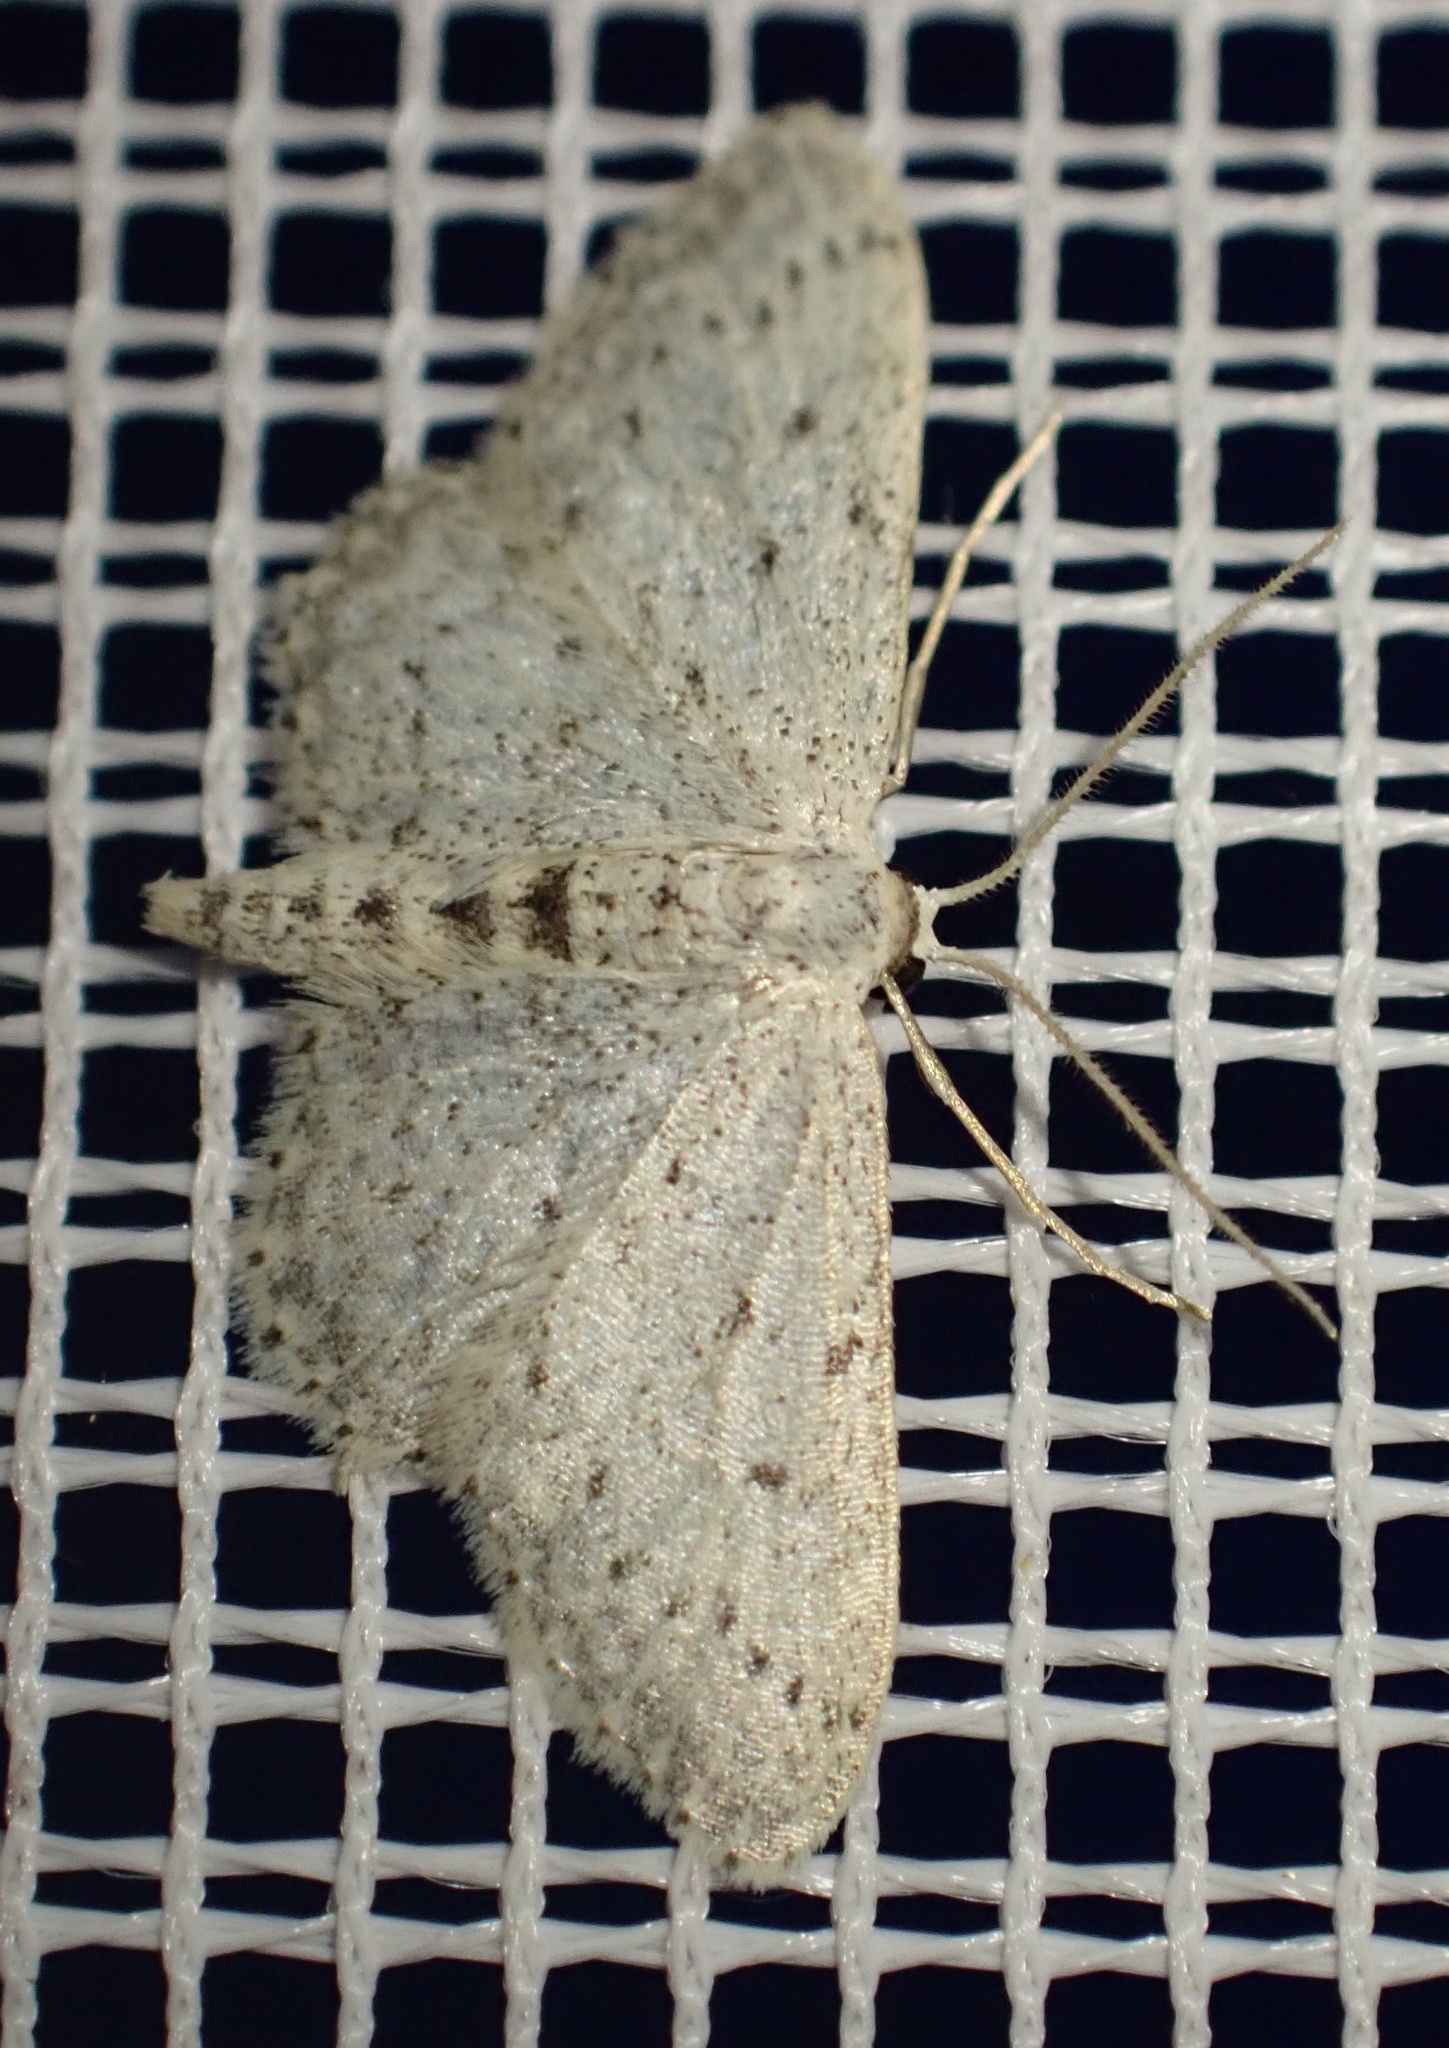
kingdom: Animalia
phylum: Arthropoda
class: Insecta
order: Lepidoptera
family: Geometridae
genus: Idaea
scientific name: Idaea seriata
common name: Small dusty wave
